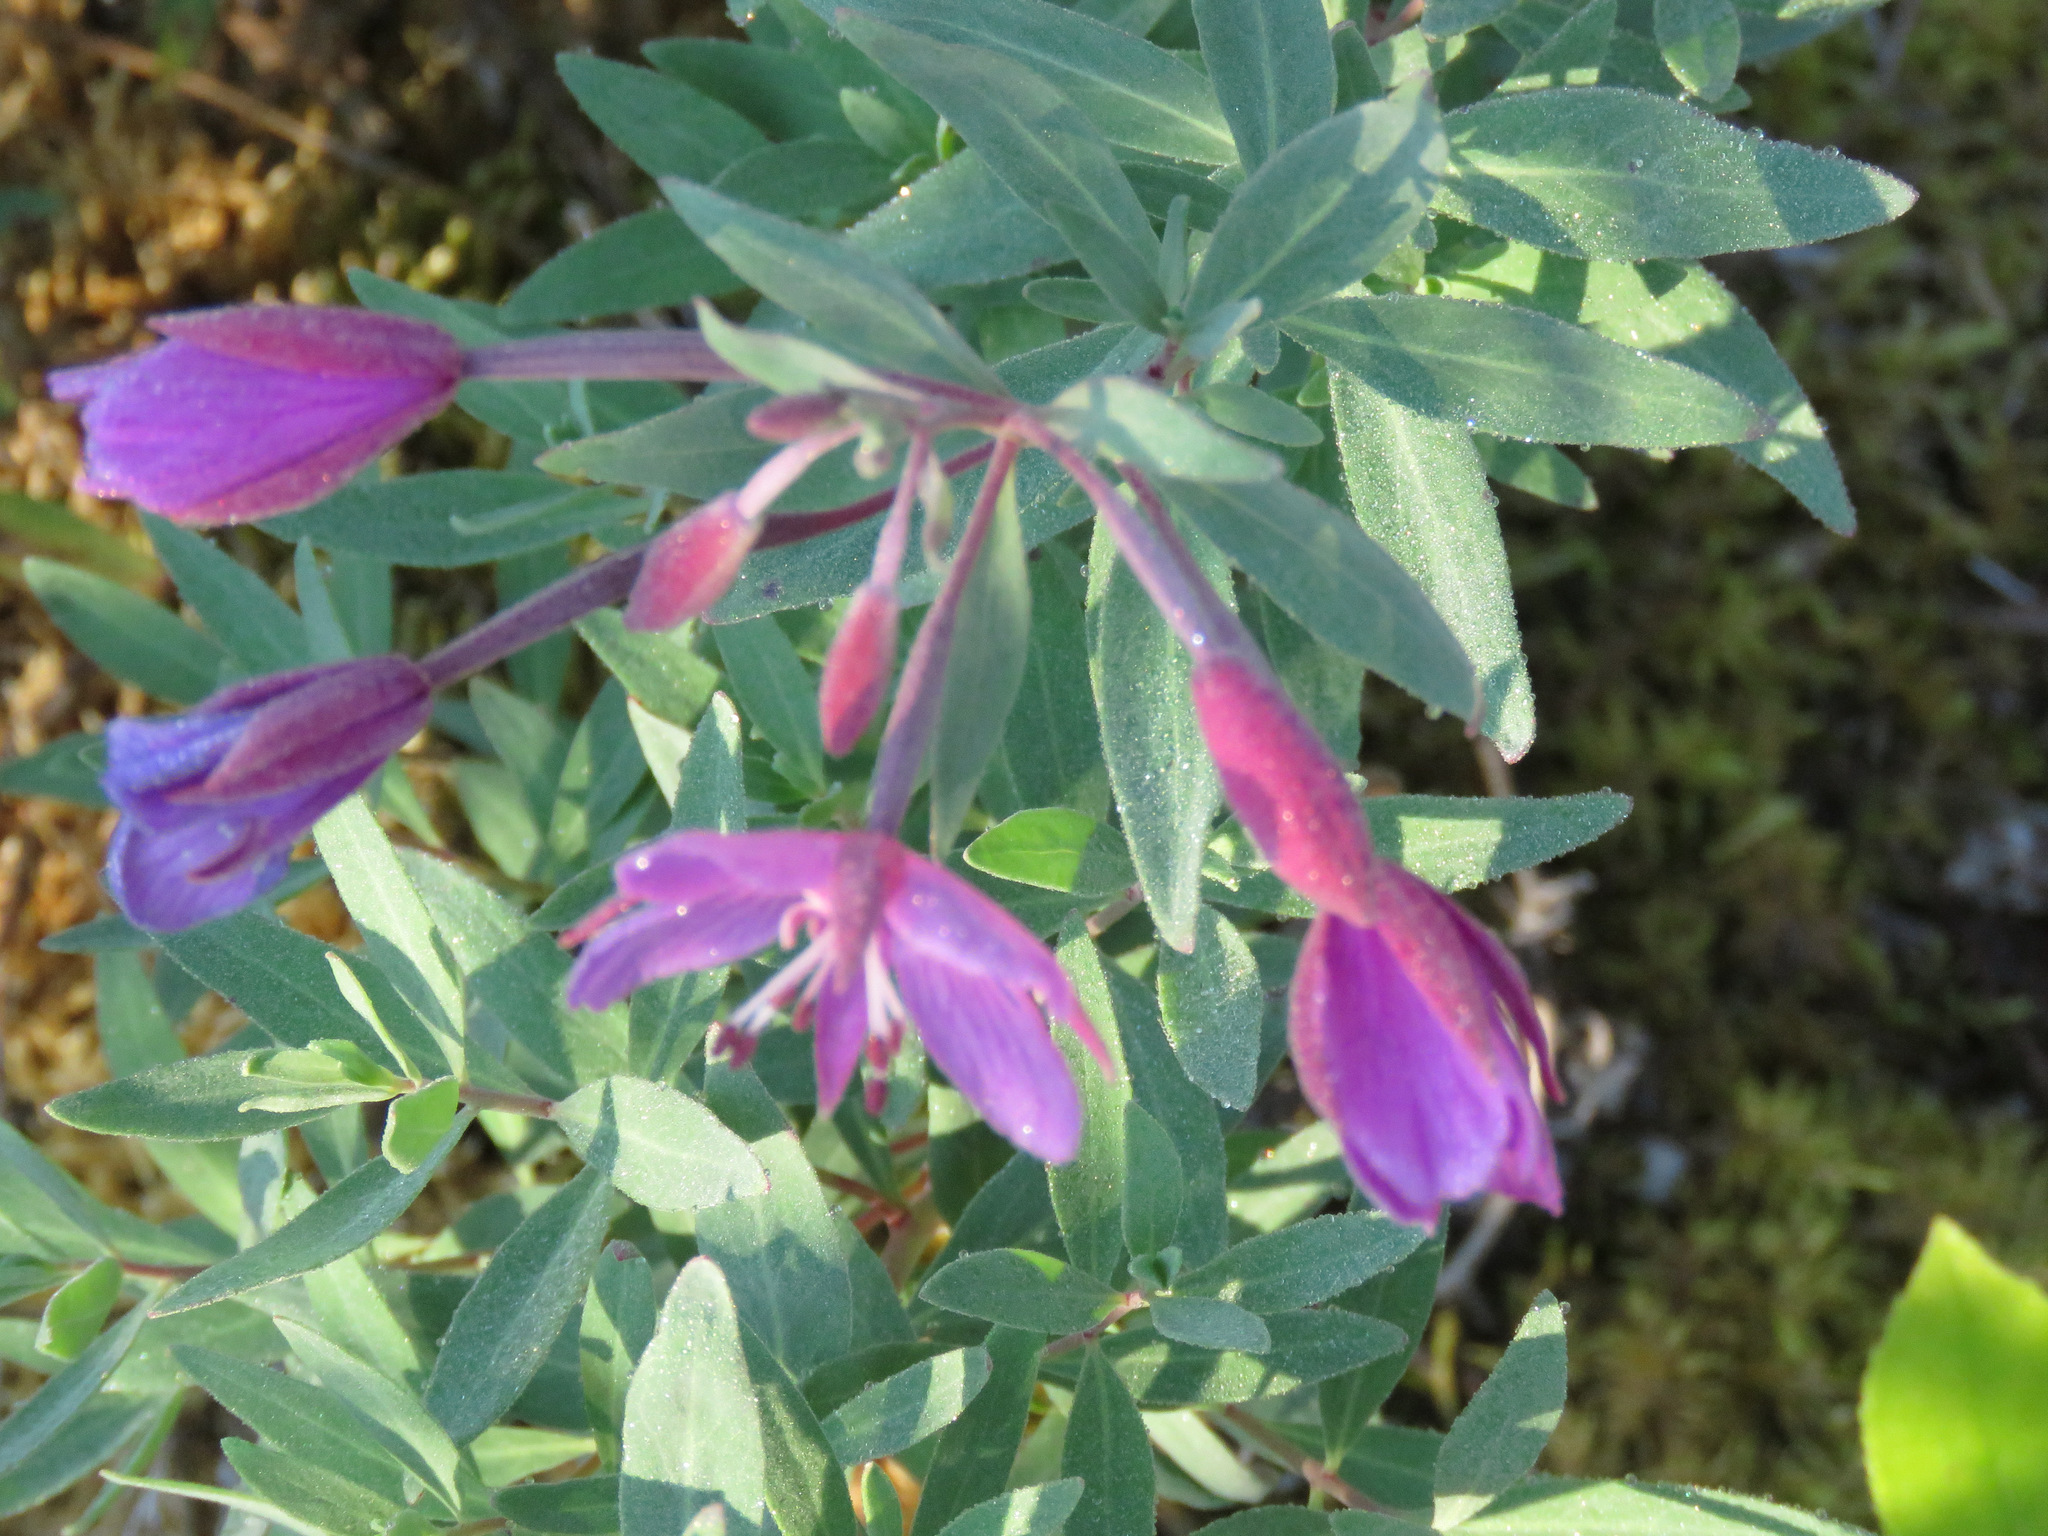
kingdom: Plantae
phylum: Tracheophyta
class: Magnoliopsida
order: Myrtales
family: Onagraceae
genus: Chamaenerion
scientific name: Chamaenerion latifolium
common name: Dwarf fireweed
